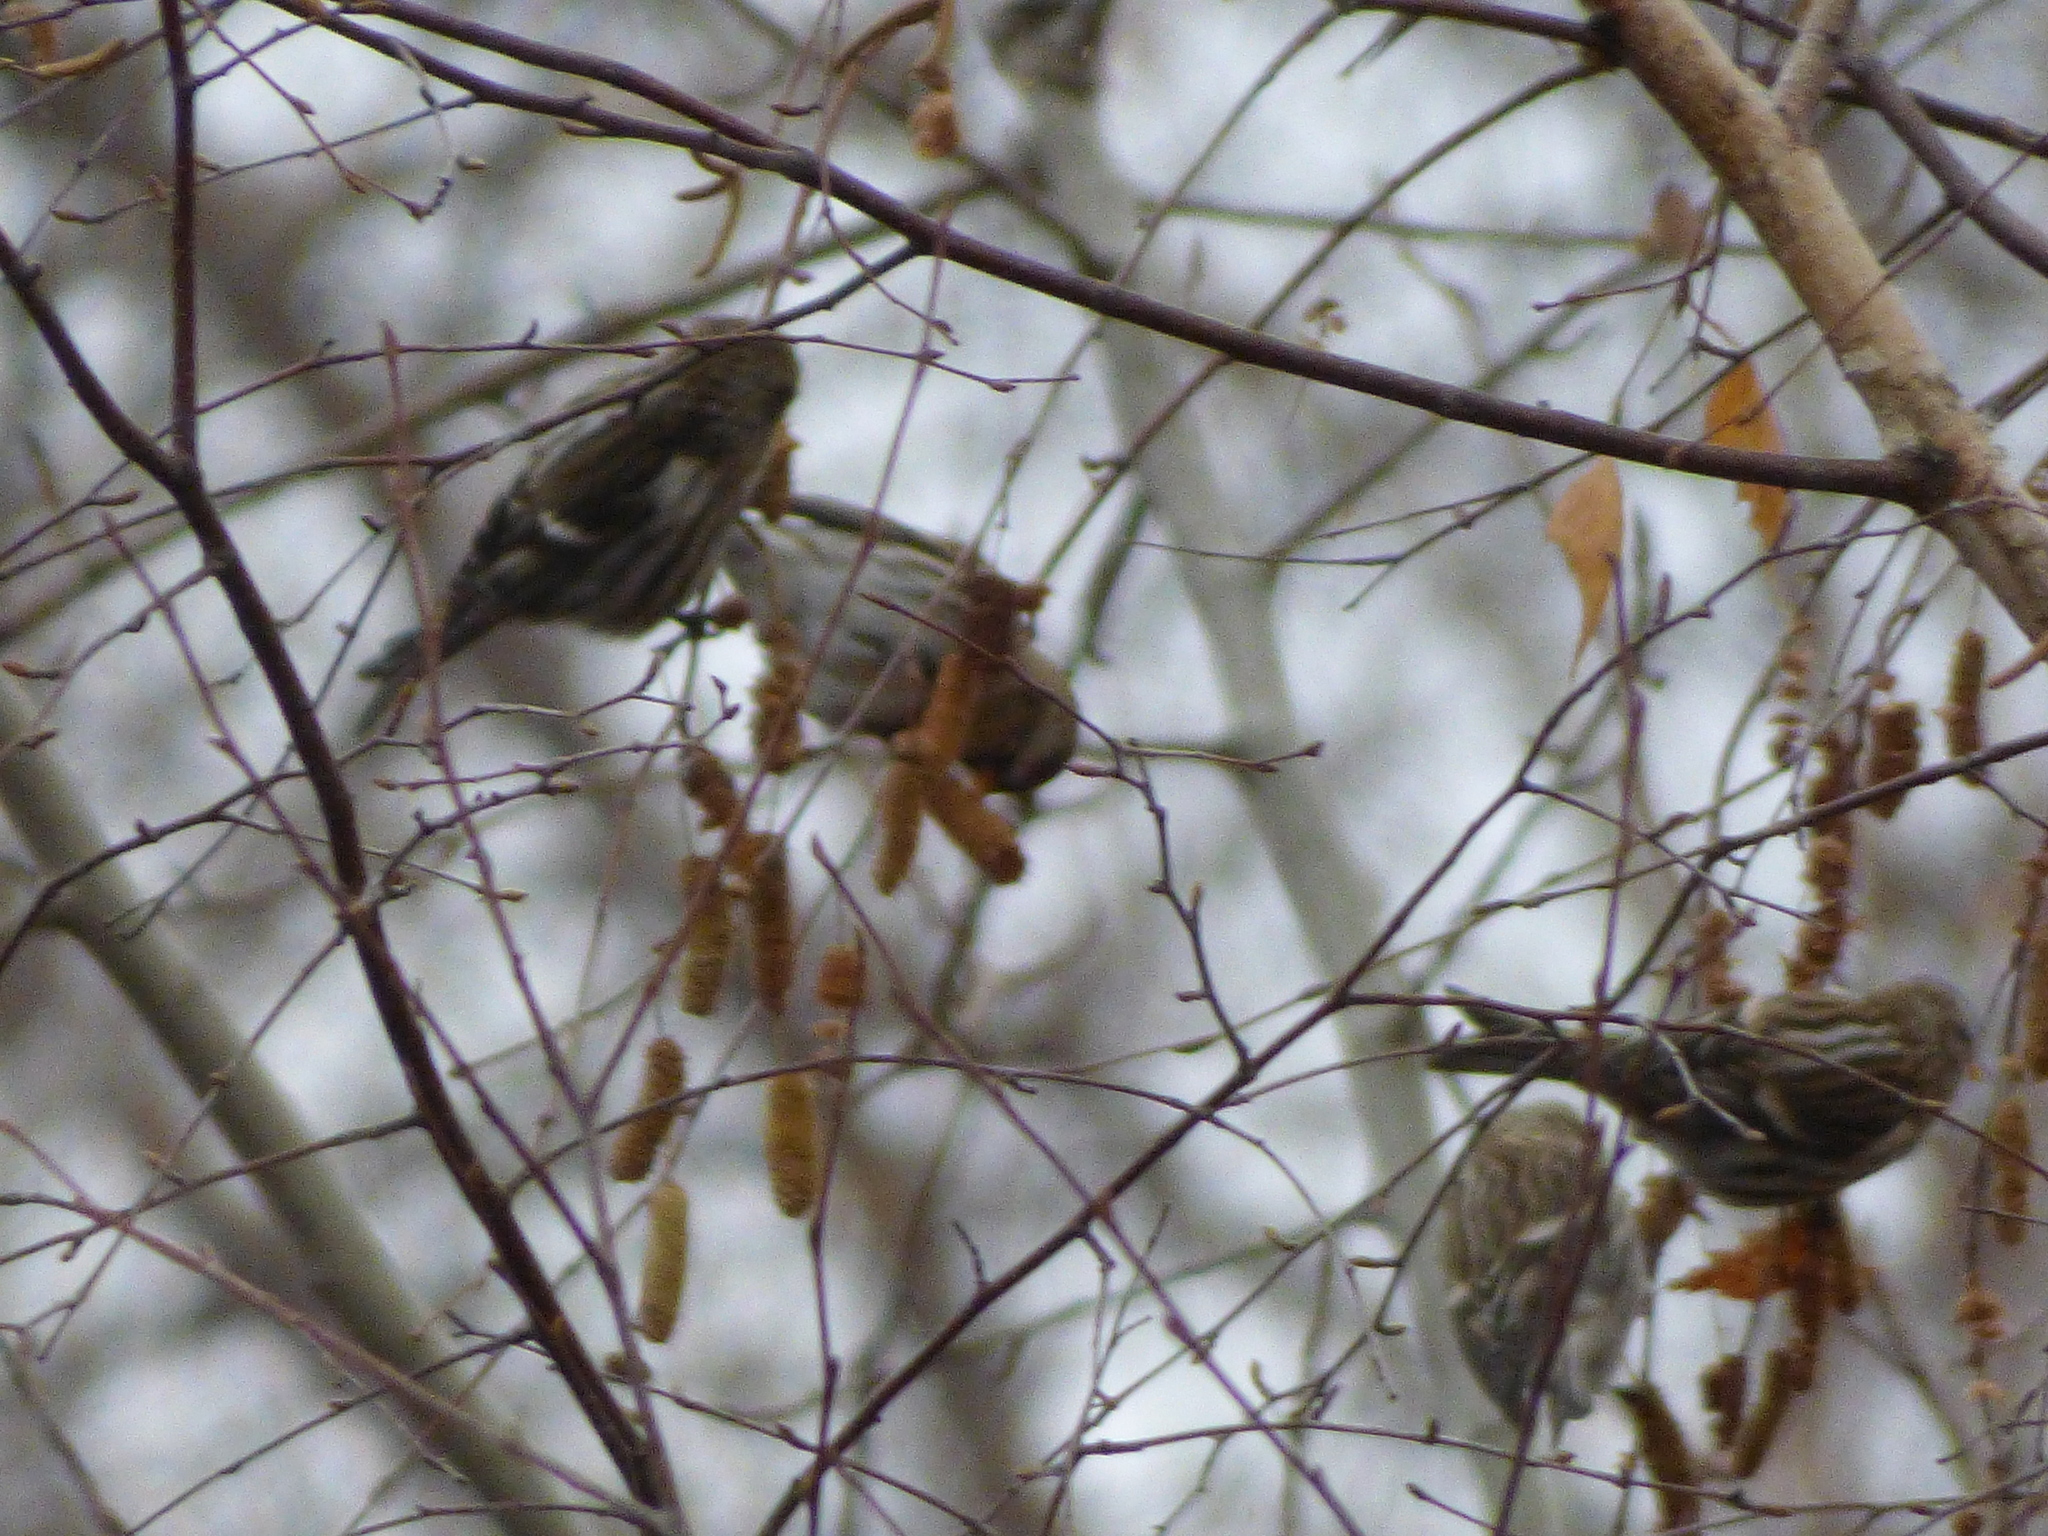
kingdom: Animalia
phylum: Chordata
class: Aves
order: Passeriformes
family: Fringillidae
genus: Acanthis
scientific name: Acanthis flammea
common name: Common redpoll
